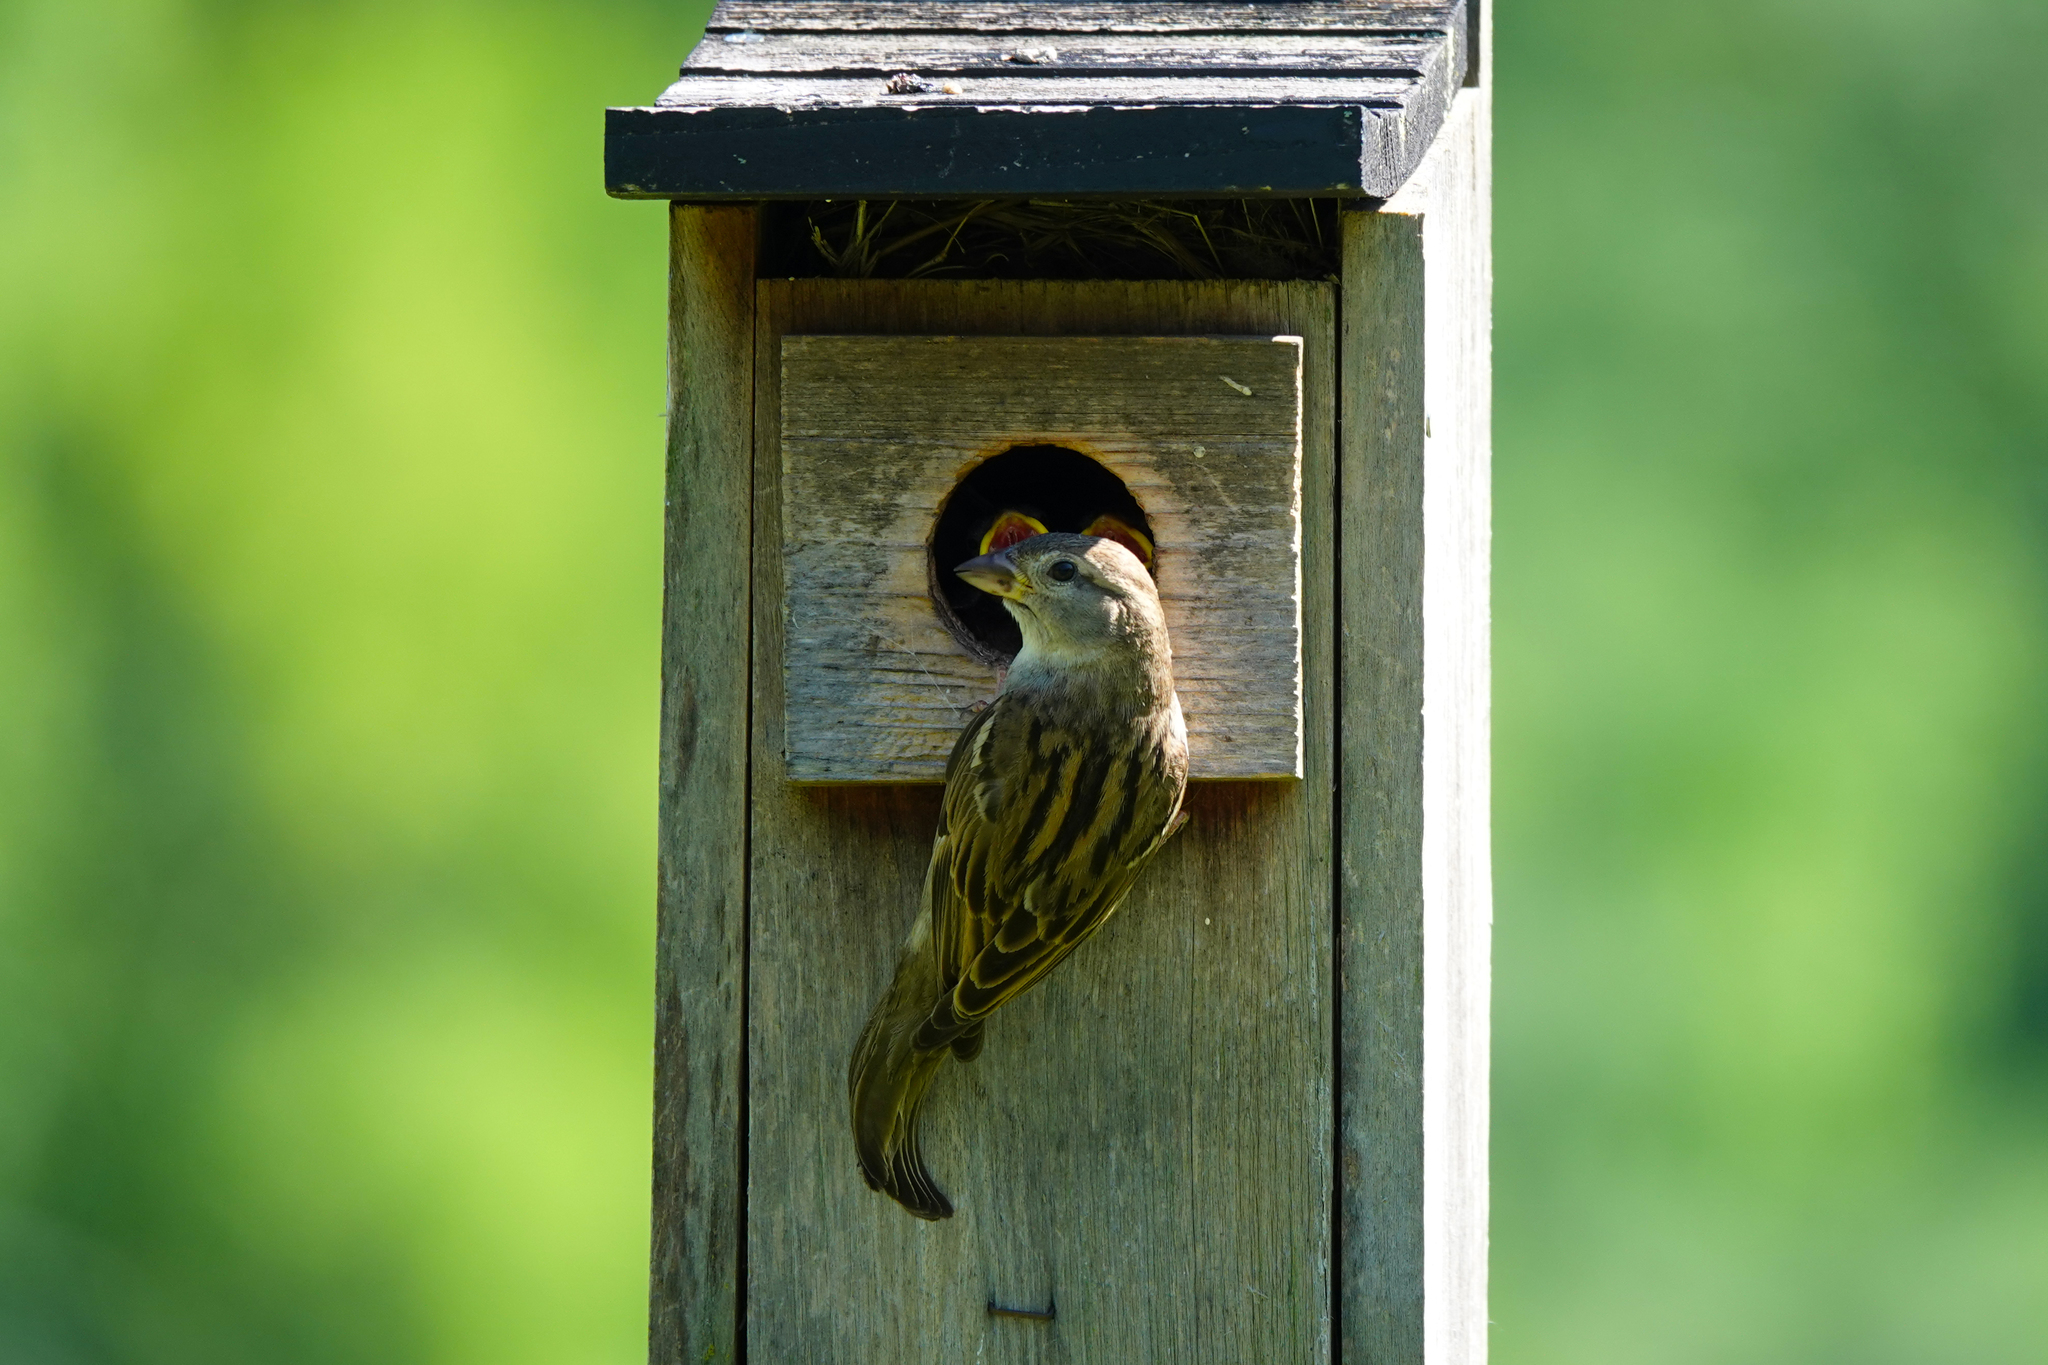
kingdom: Animalia
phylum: Chordata
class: Aves
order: Passeriformes
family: Passeridae
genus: Passer
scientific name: Passer domesticus
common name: House sparrow
